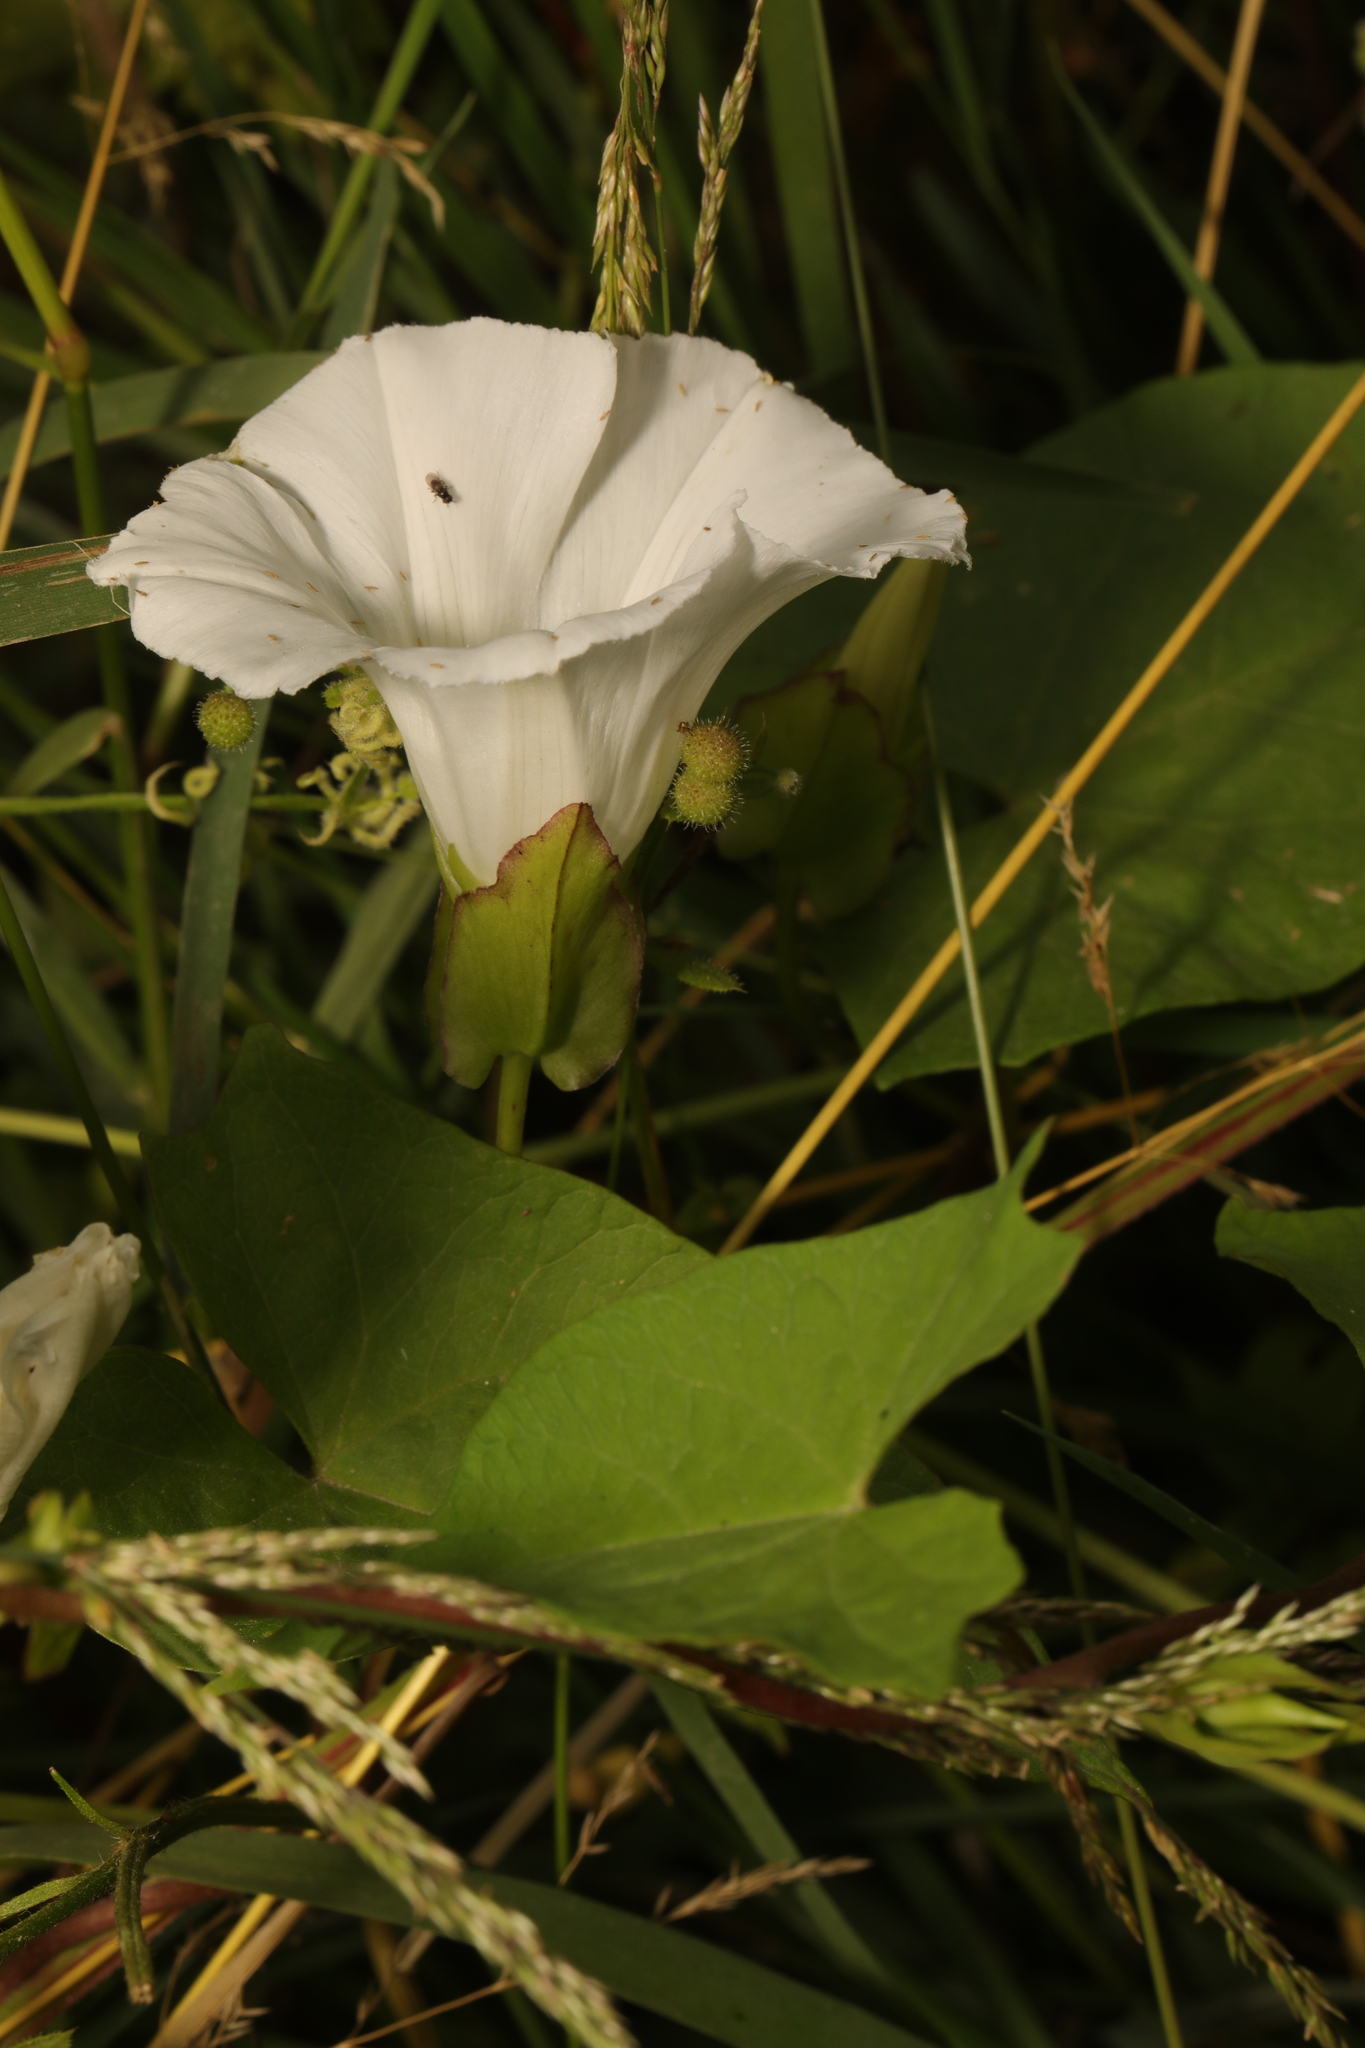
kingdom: Plantae
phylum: Tracheophyta
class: Magnoliopsida
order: Solanales
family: Convolvulaceae
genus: Calystegia
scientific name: Calystegia sepium
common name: Hedge bindweed
